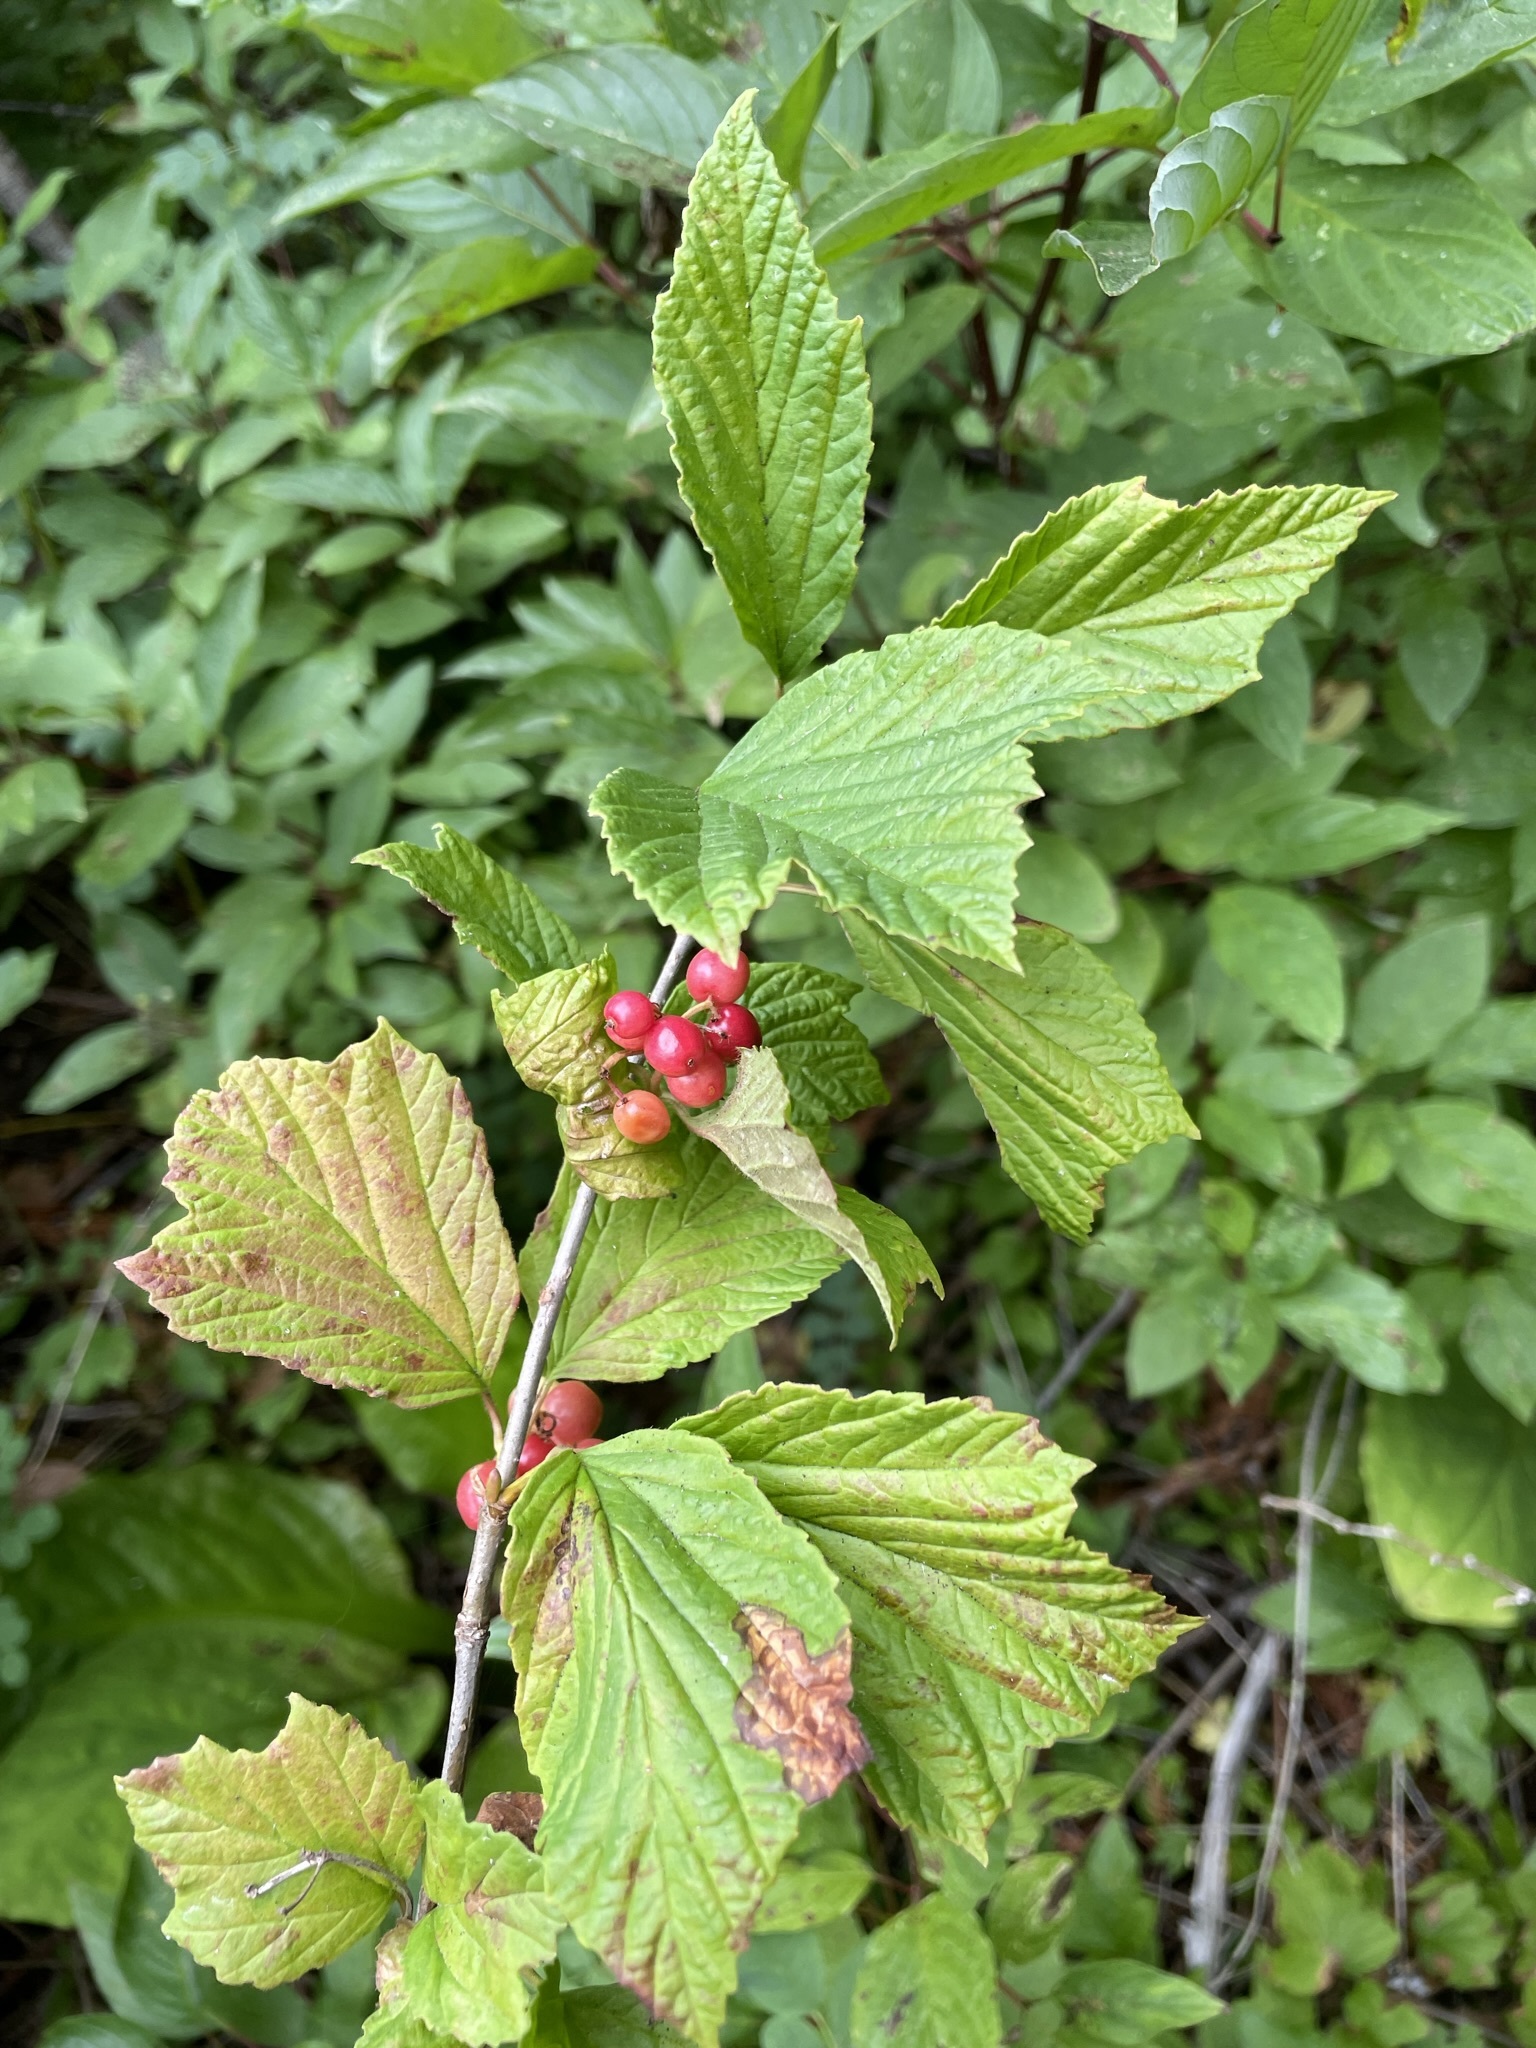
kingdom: Plantae
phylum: Tracheophyta
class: Magnoliopsida
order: Dipsacales
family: Viburnaceae
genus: Viburnum
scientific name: Viburnum edule
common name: Mooseberry
